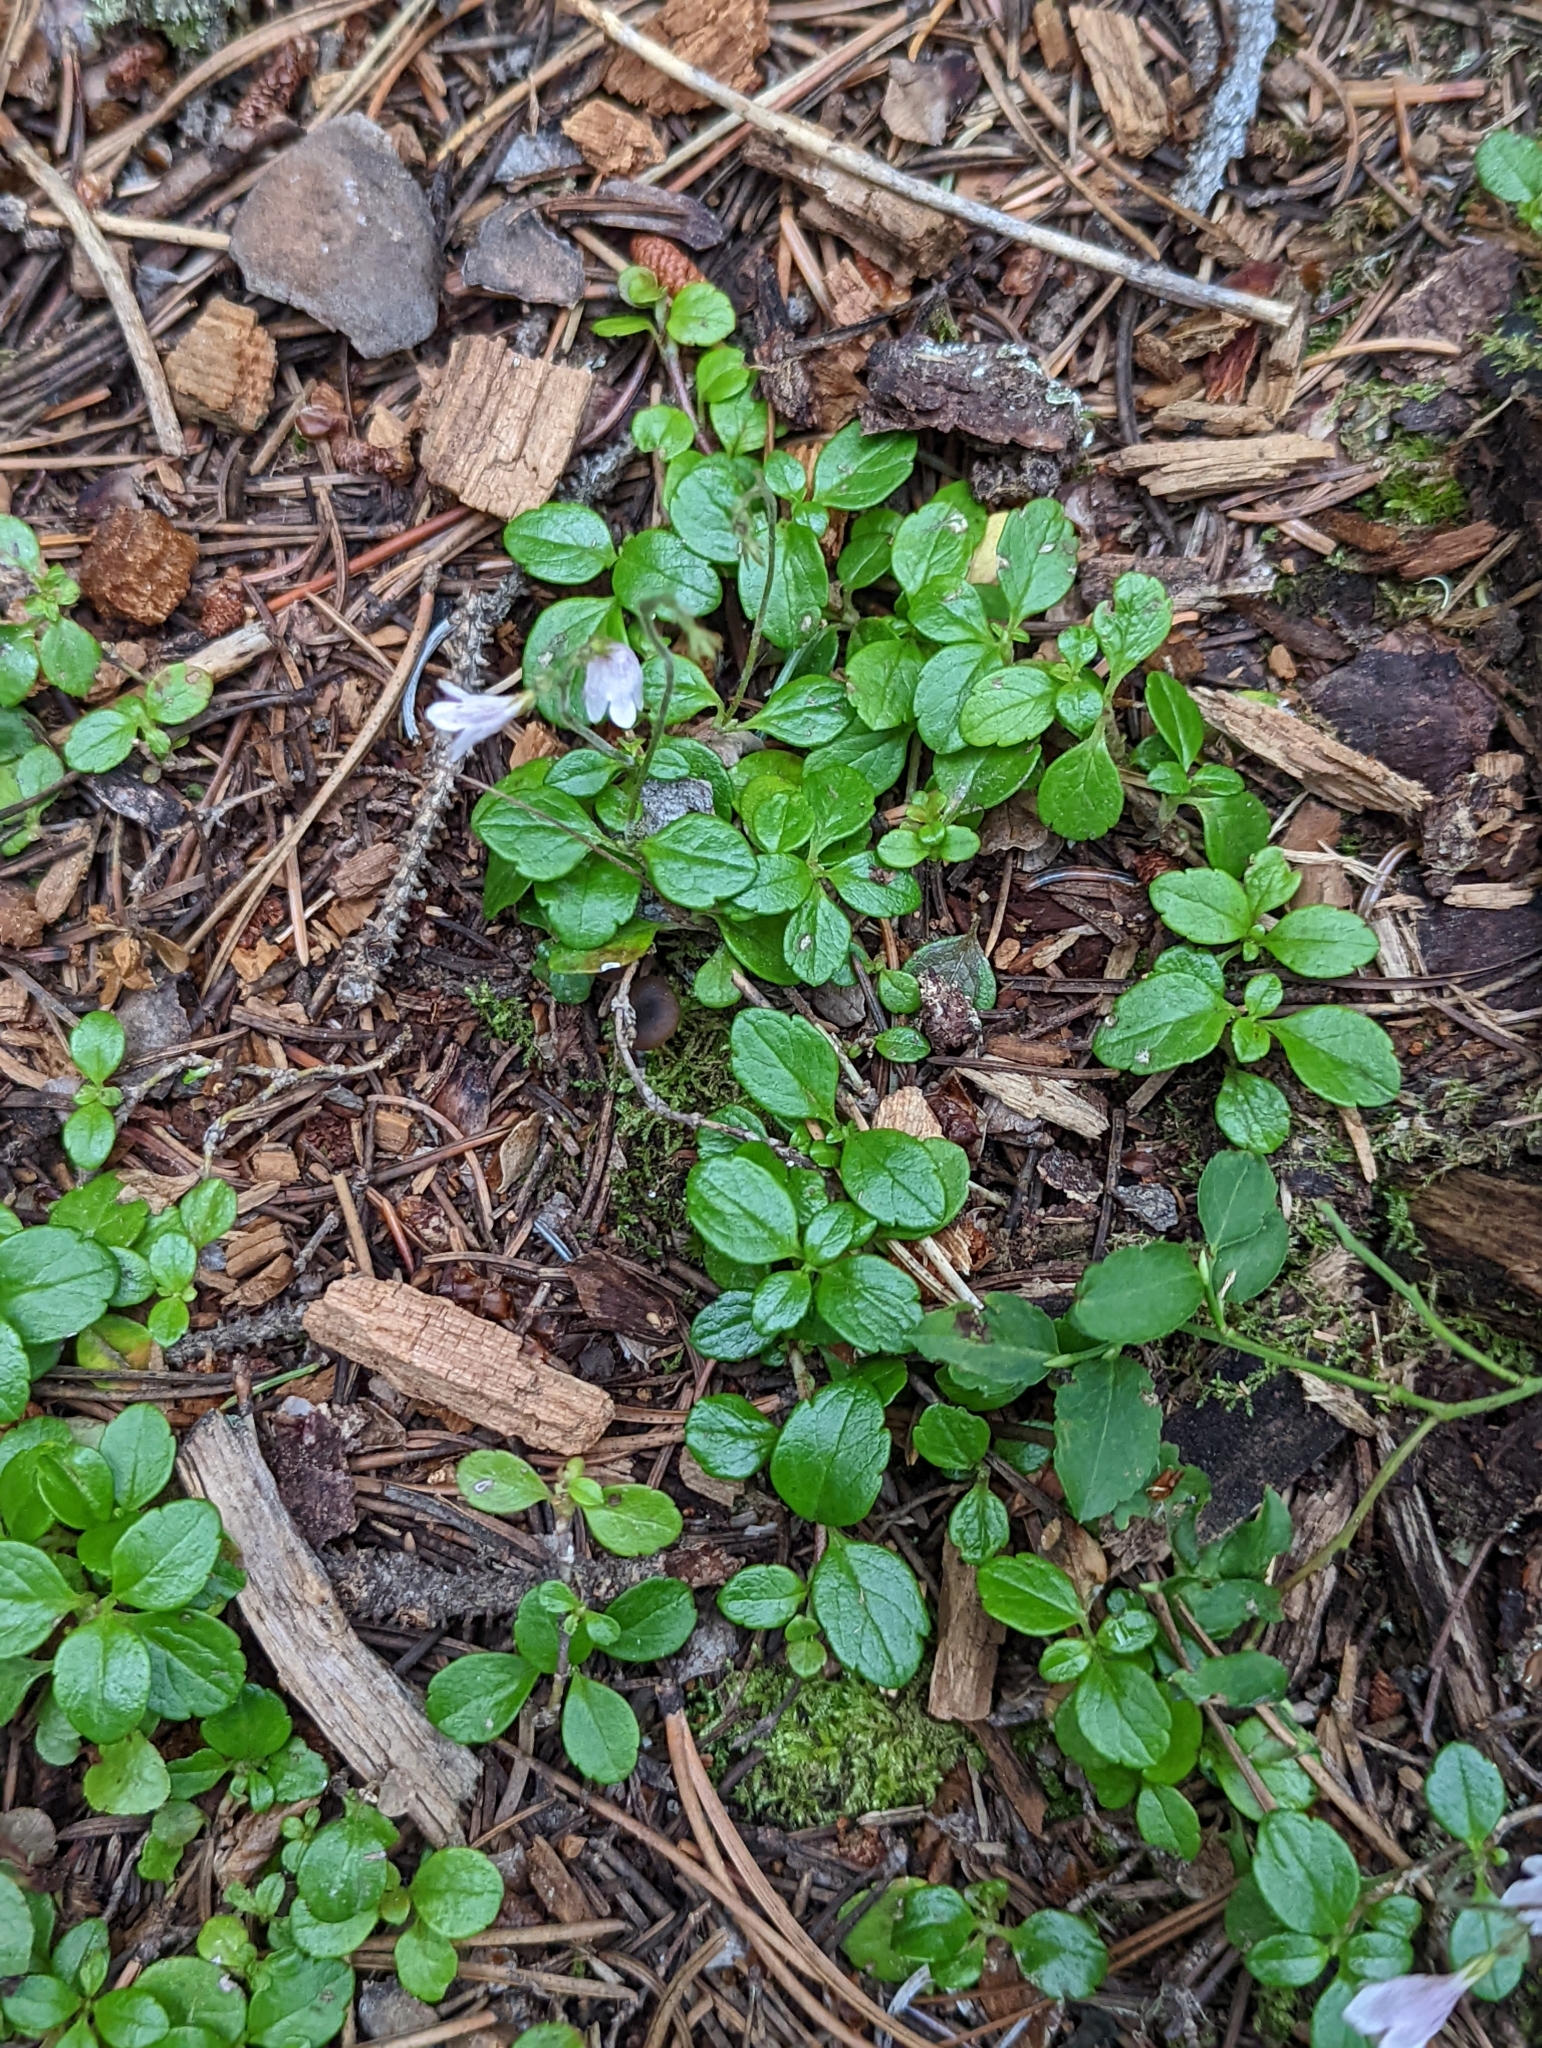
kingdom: Plantae
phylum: Tracheophyta
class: Magnoliopsida
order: Dipsacales
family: Caprifoliaceae
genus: Linnaea
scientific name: Linnaea borealis
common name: Twinflower
